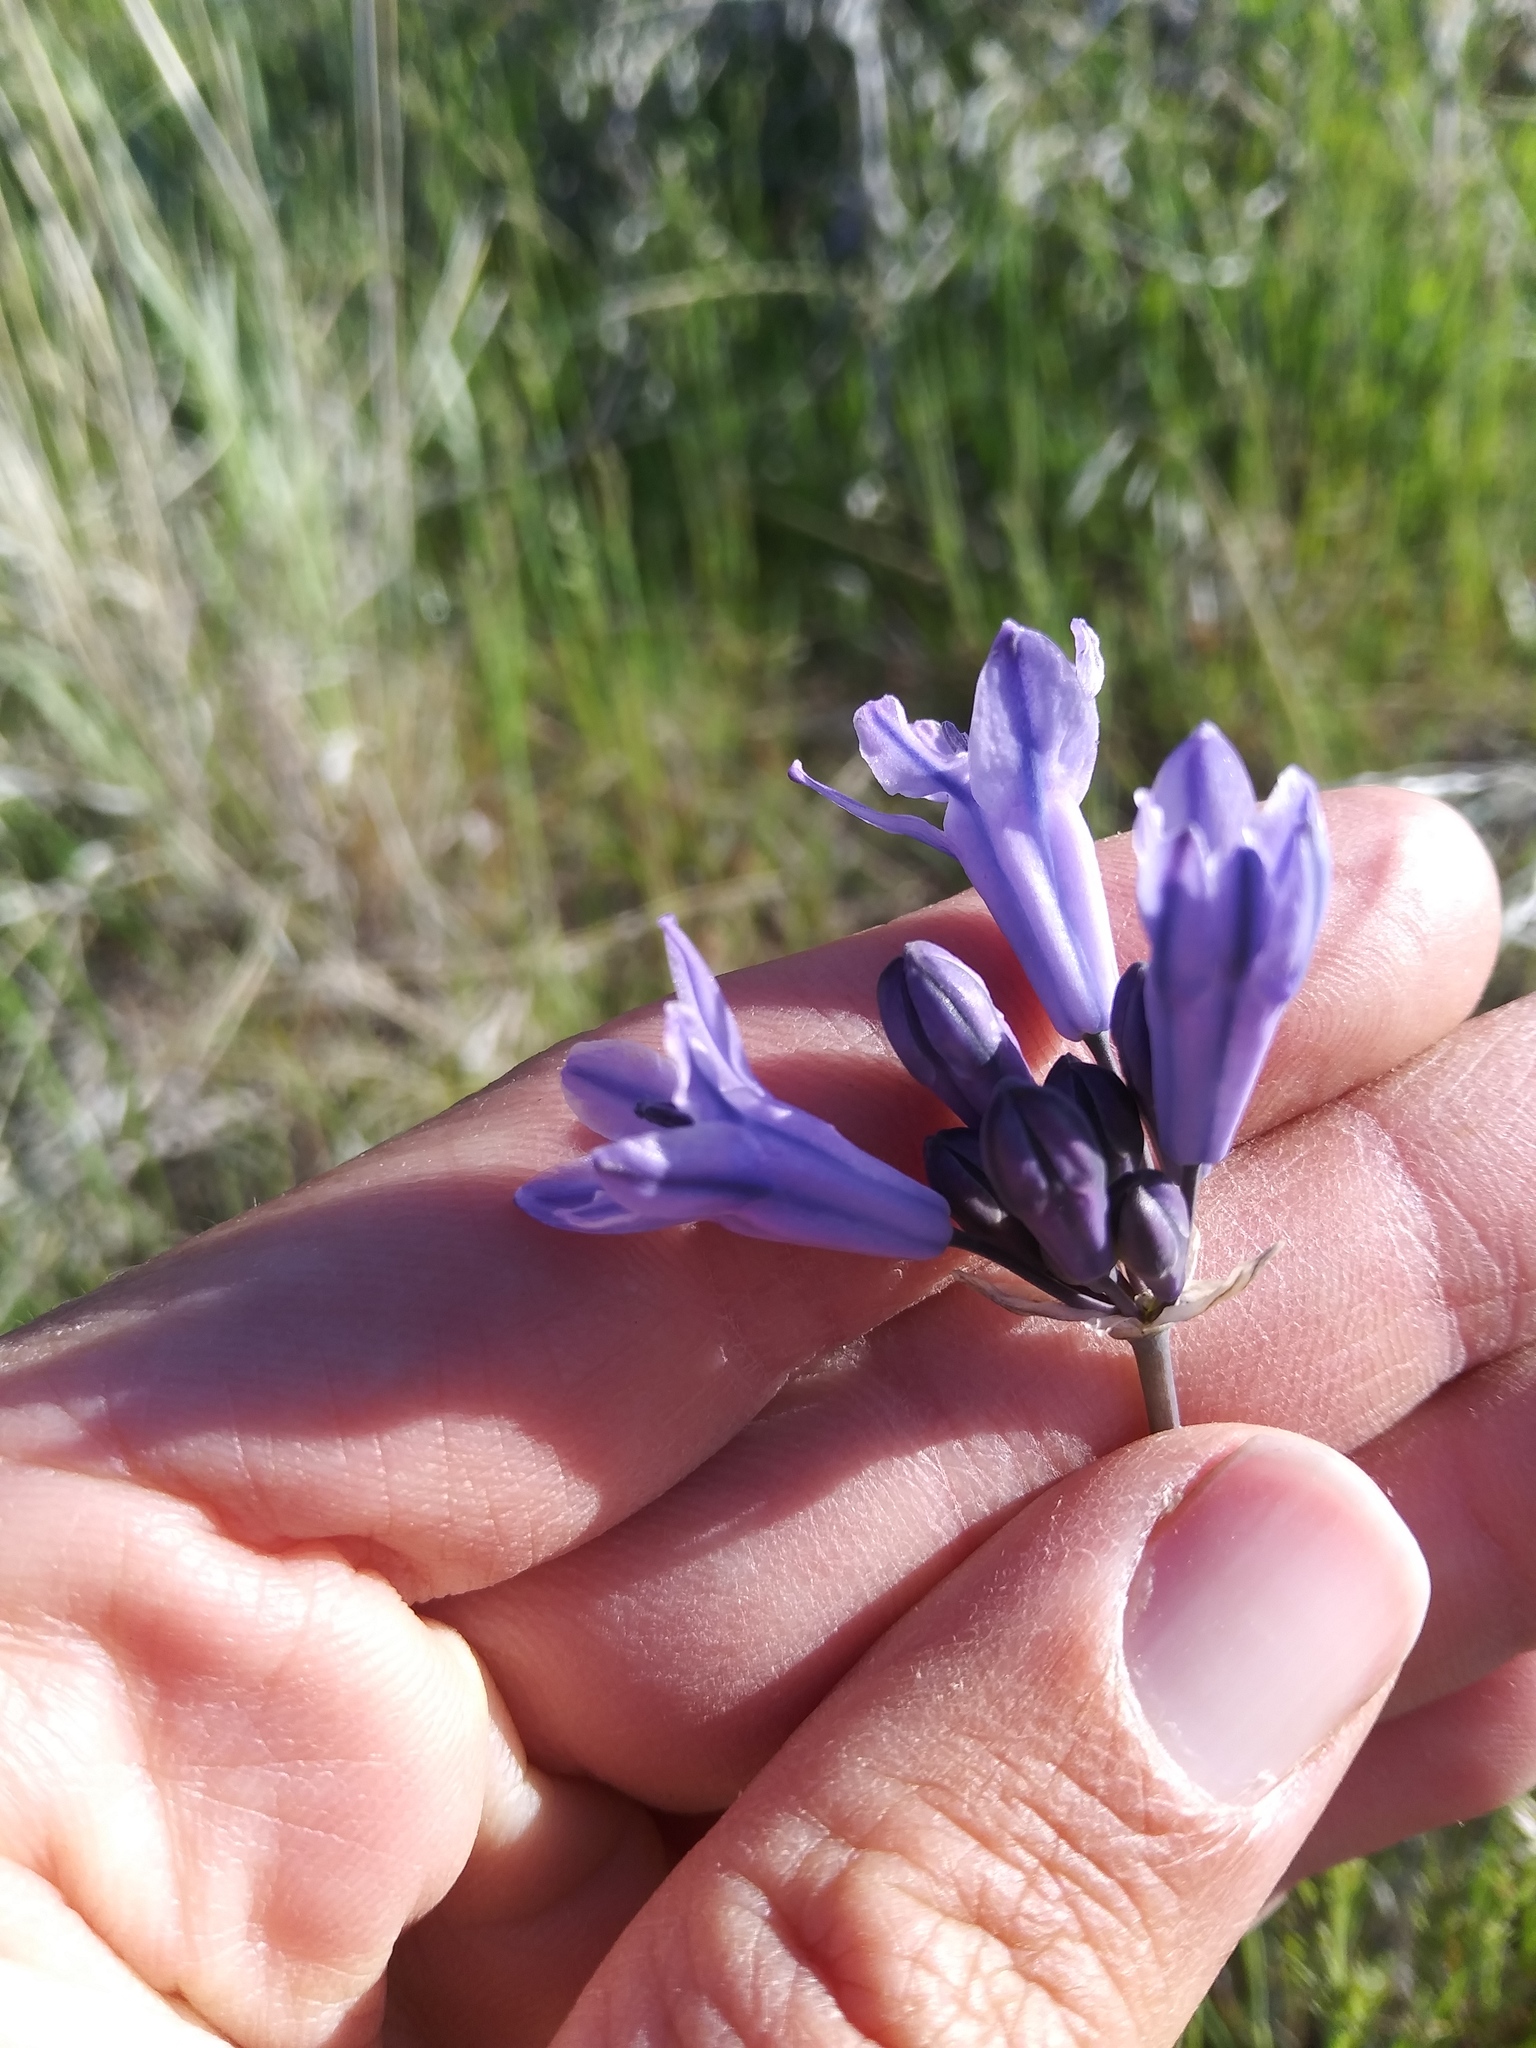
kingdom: Plantae
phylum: Tracheophyta
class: Liliopsida
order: Asparagales
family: Asparagaceae
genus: Triteleia
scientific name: Triteleia grandiflora
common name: Wild hyacinth
